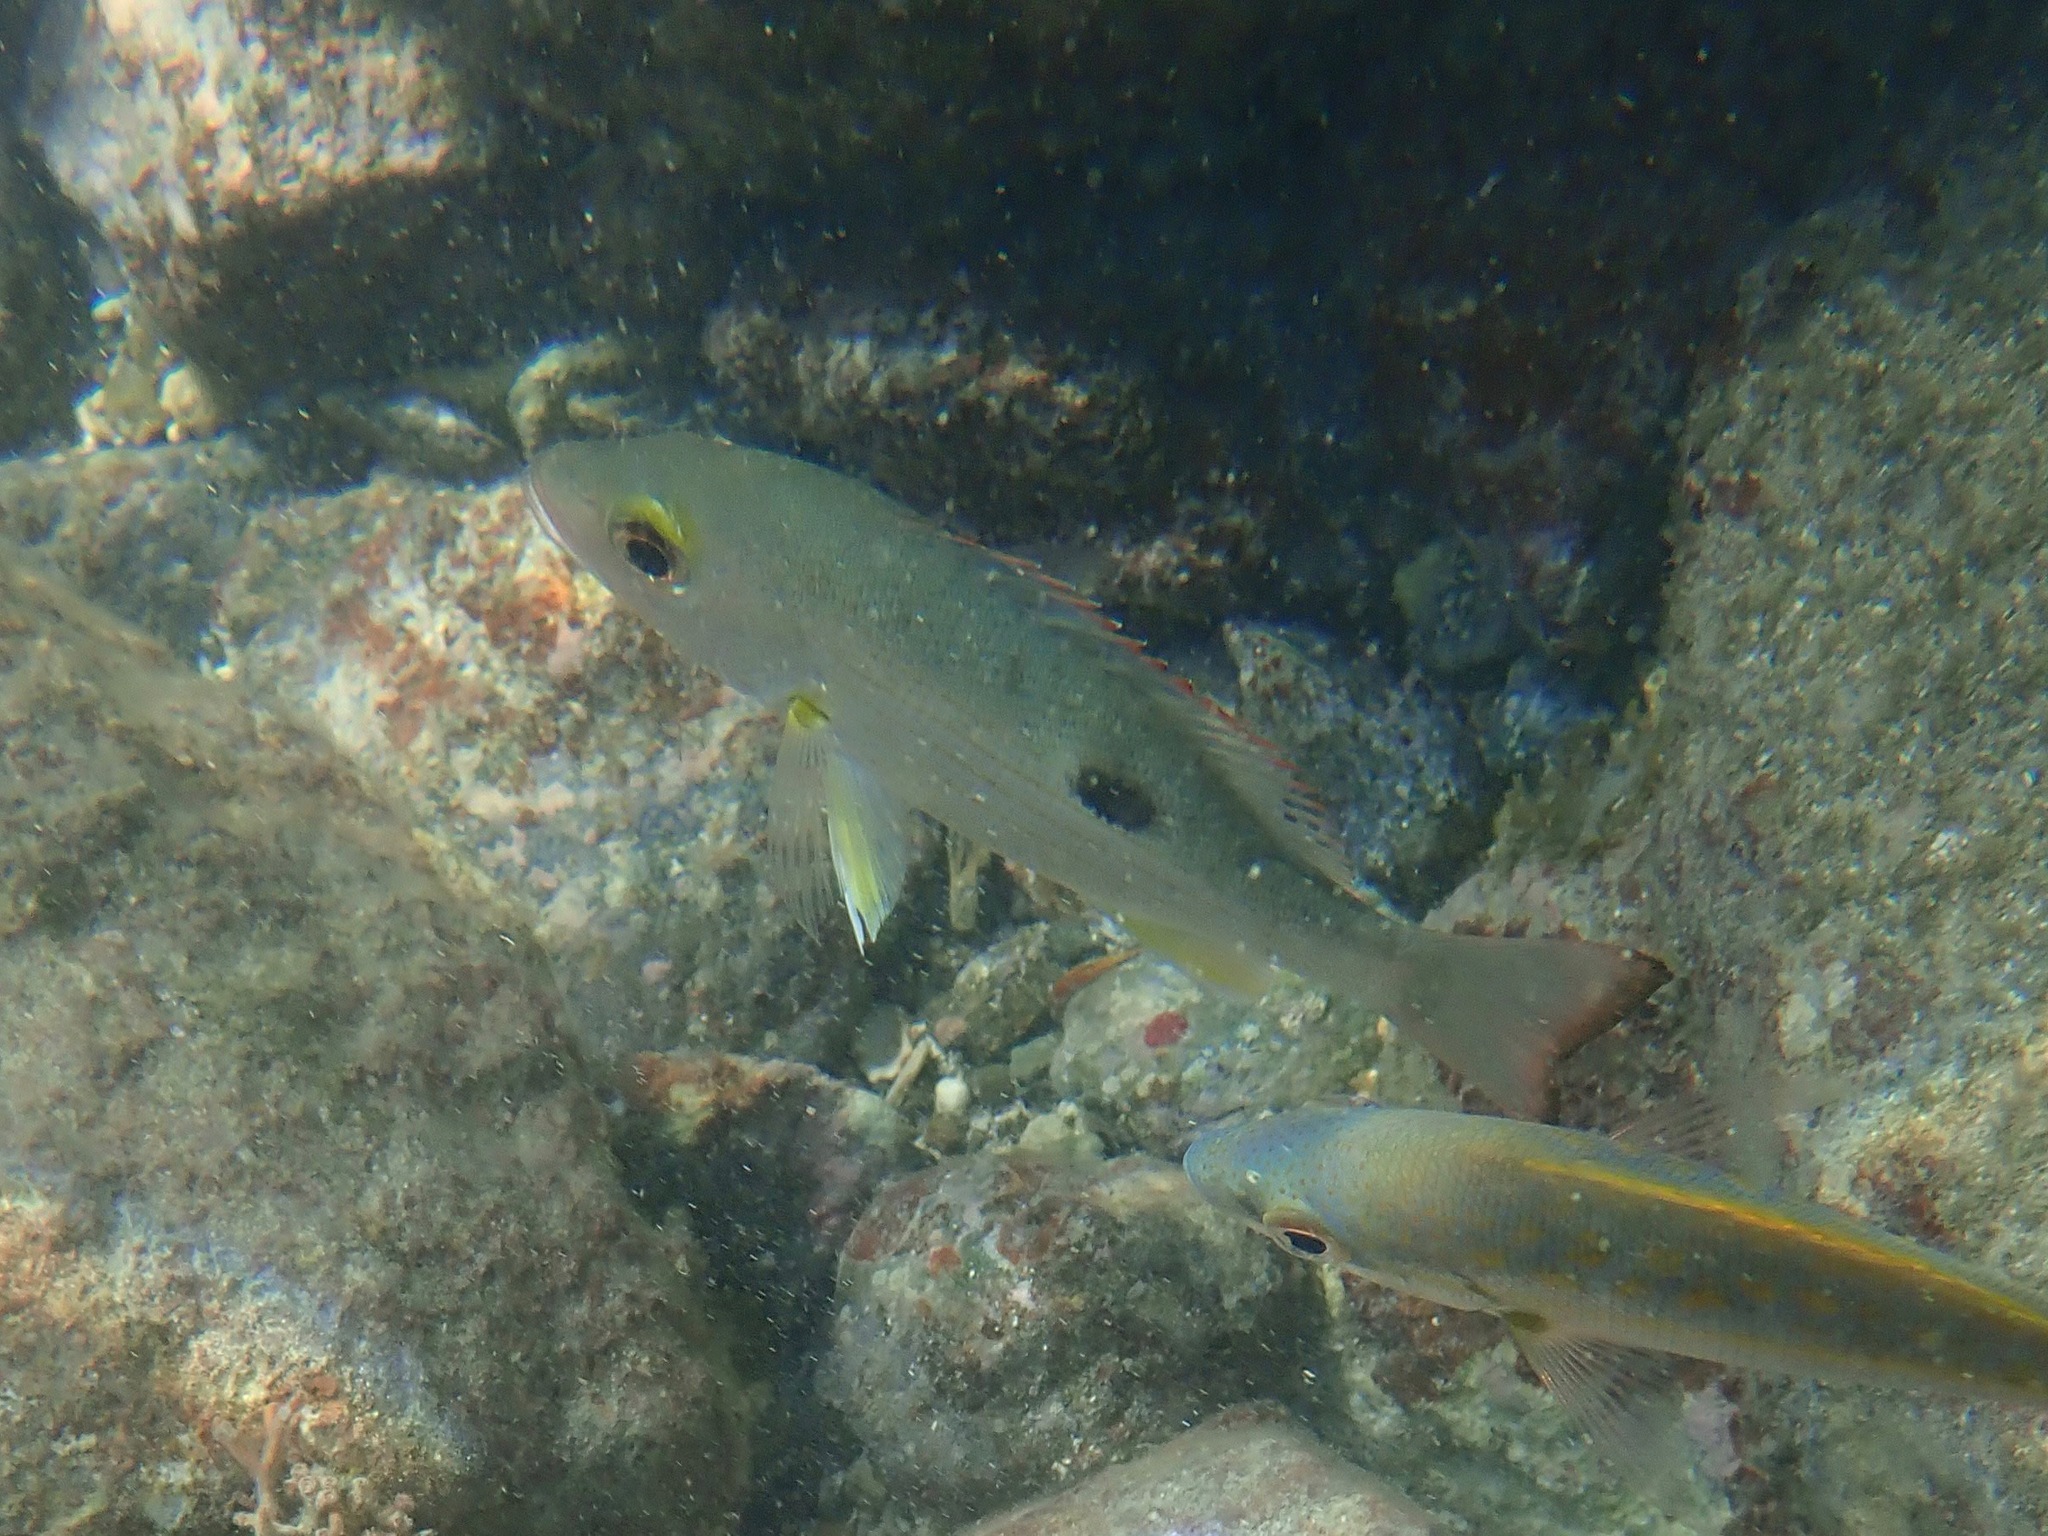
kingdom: Animalia
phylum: Chordata
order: Perciformes
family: Lutjanidae
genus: Lutjanus
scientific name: Lutjanus mahogoni
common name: Spot snapper
